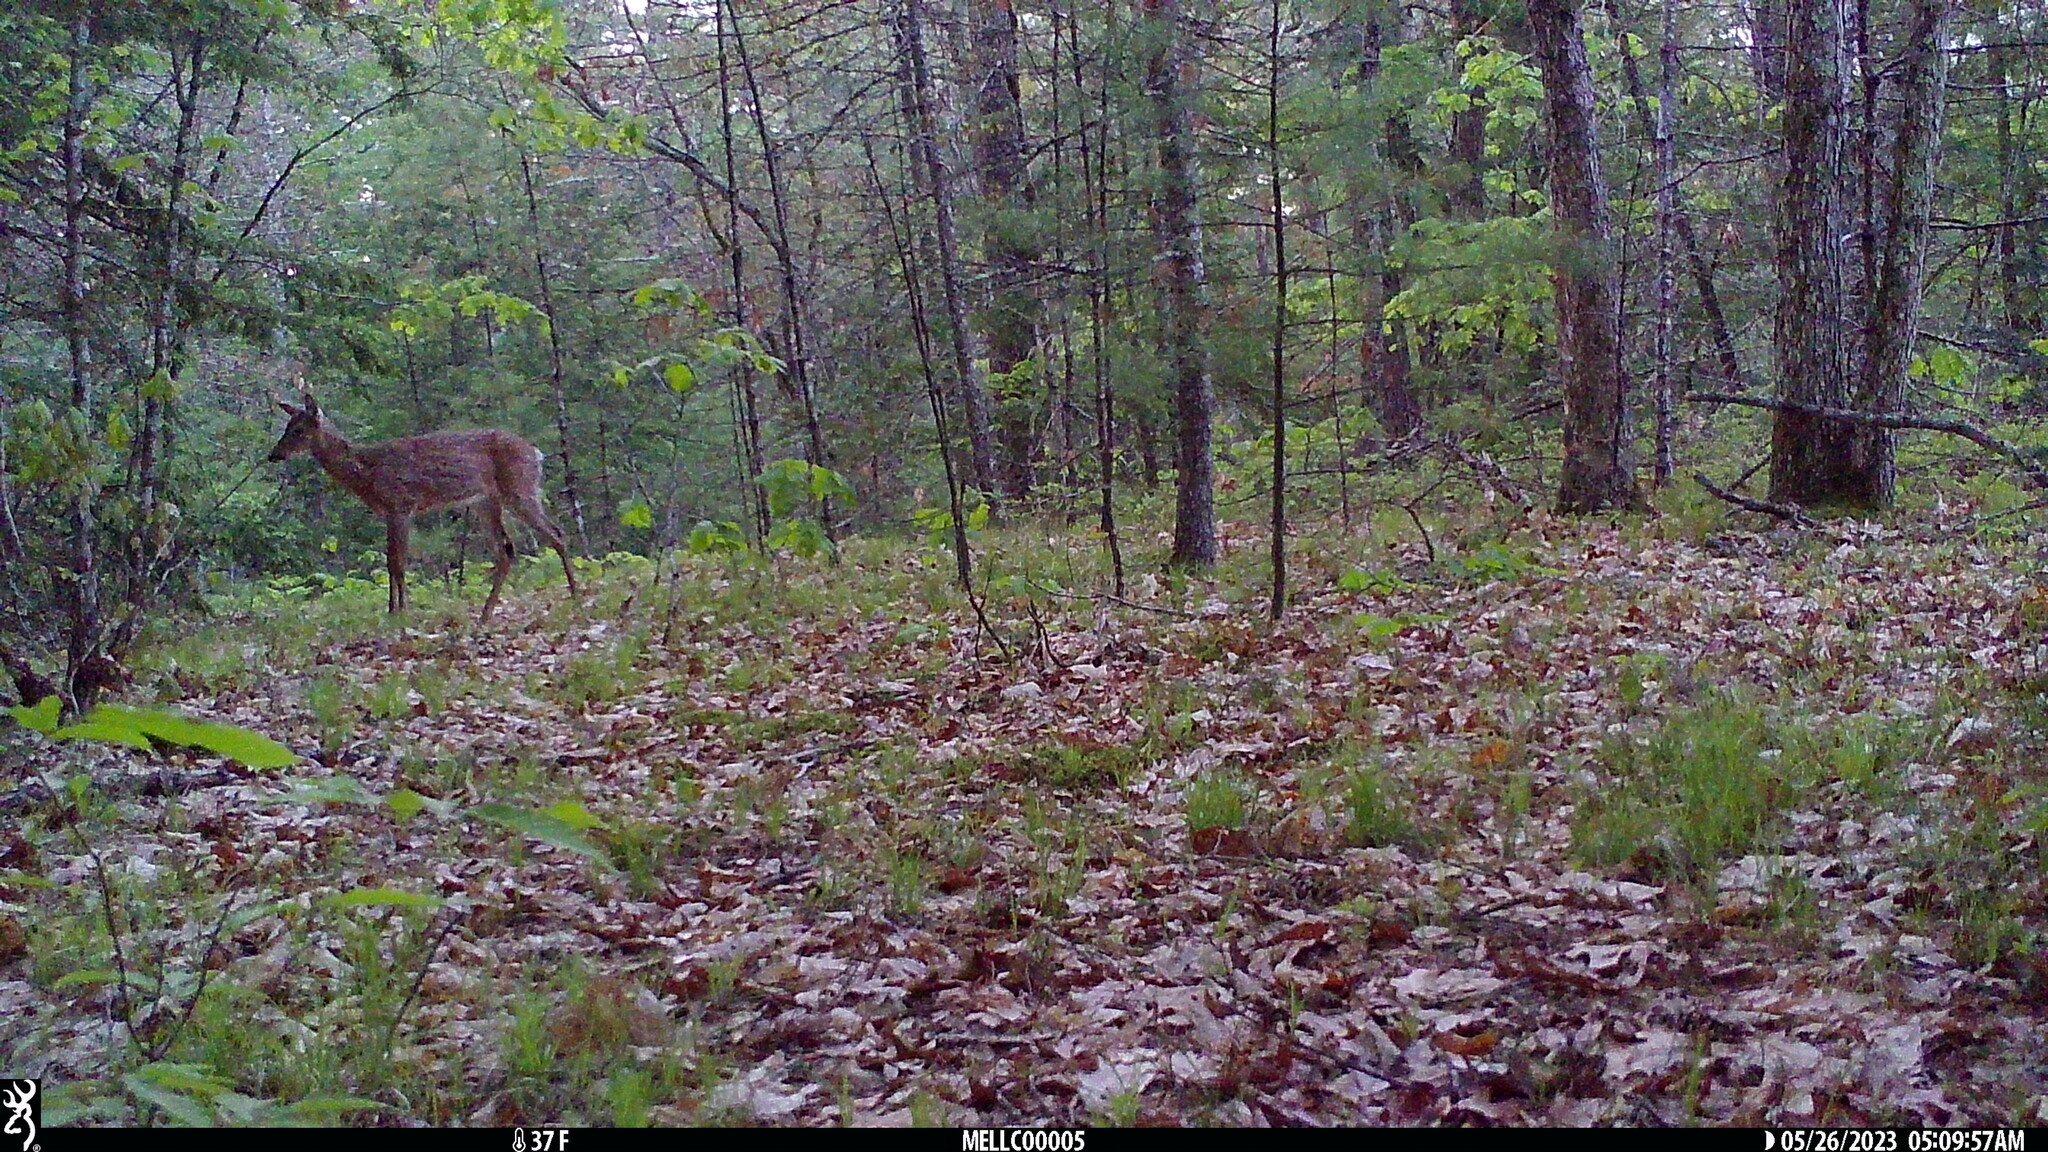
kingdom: Animalia
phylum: Chordata
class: Mammalia
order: Artiodactyla
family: Cervidae
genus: Odocoileus
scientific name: Odocoileus virginianus
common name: White-tailed deer
